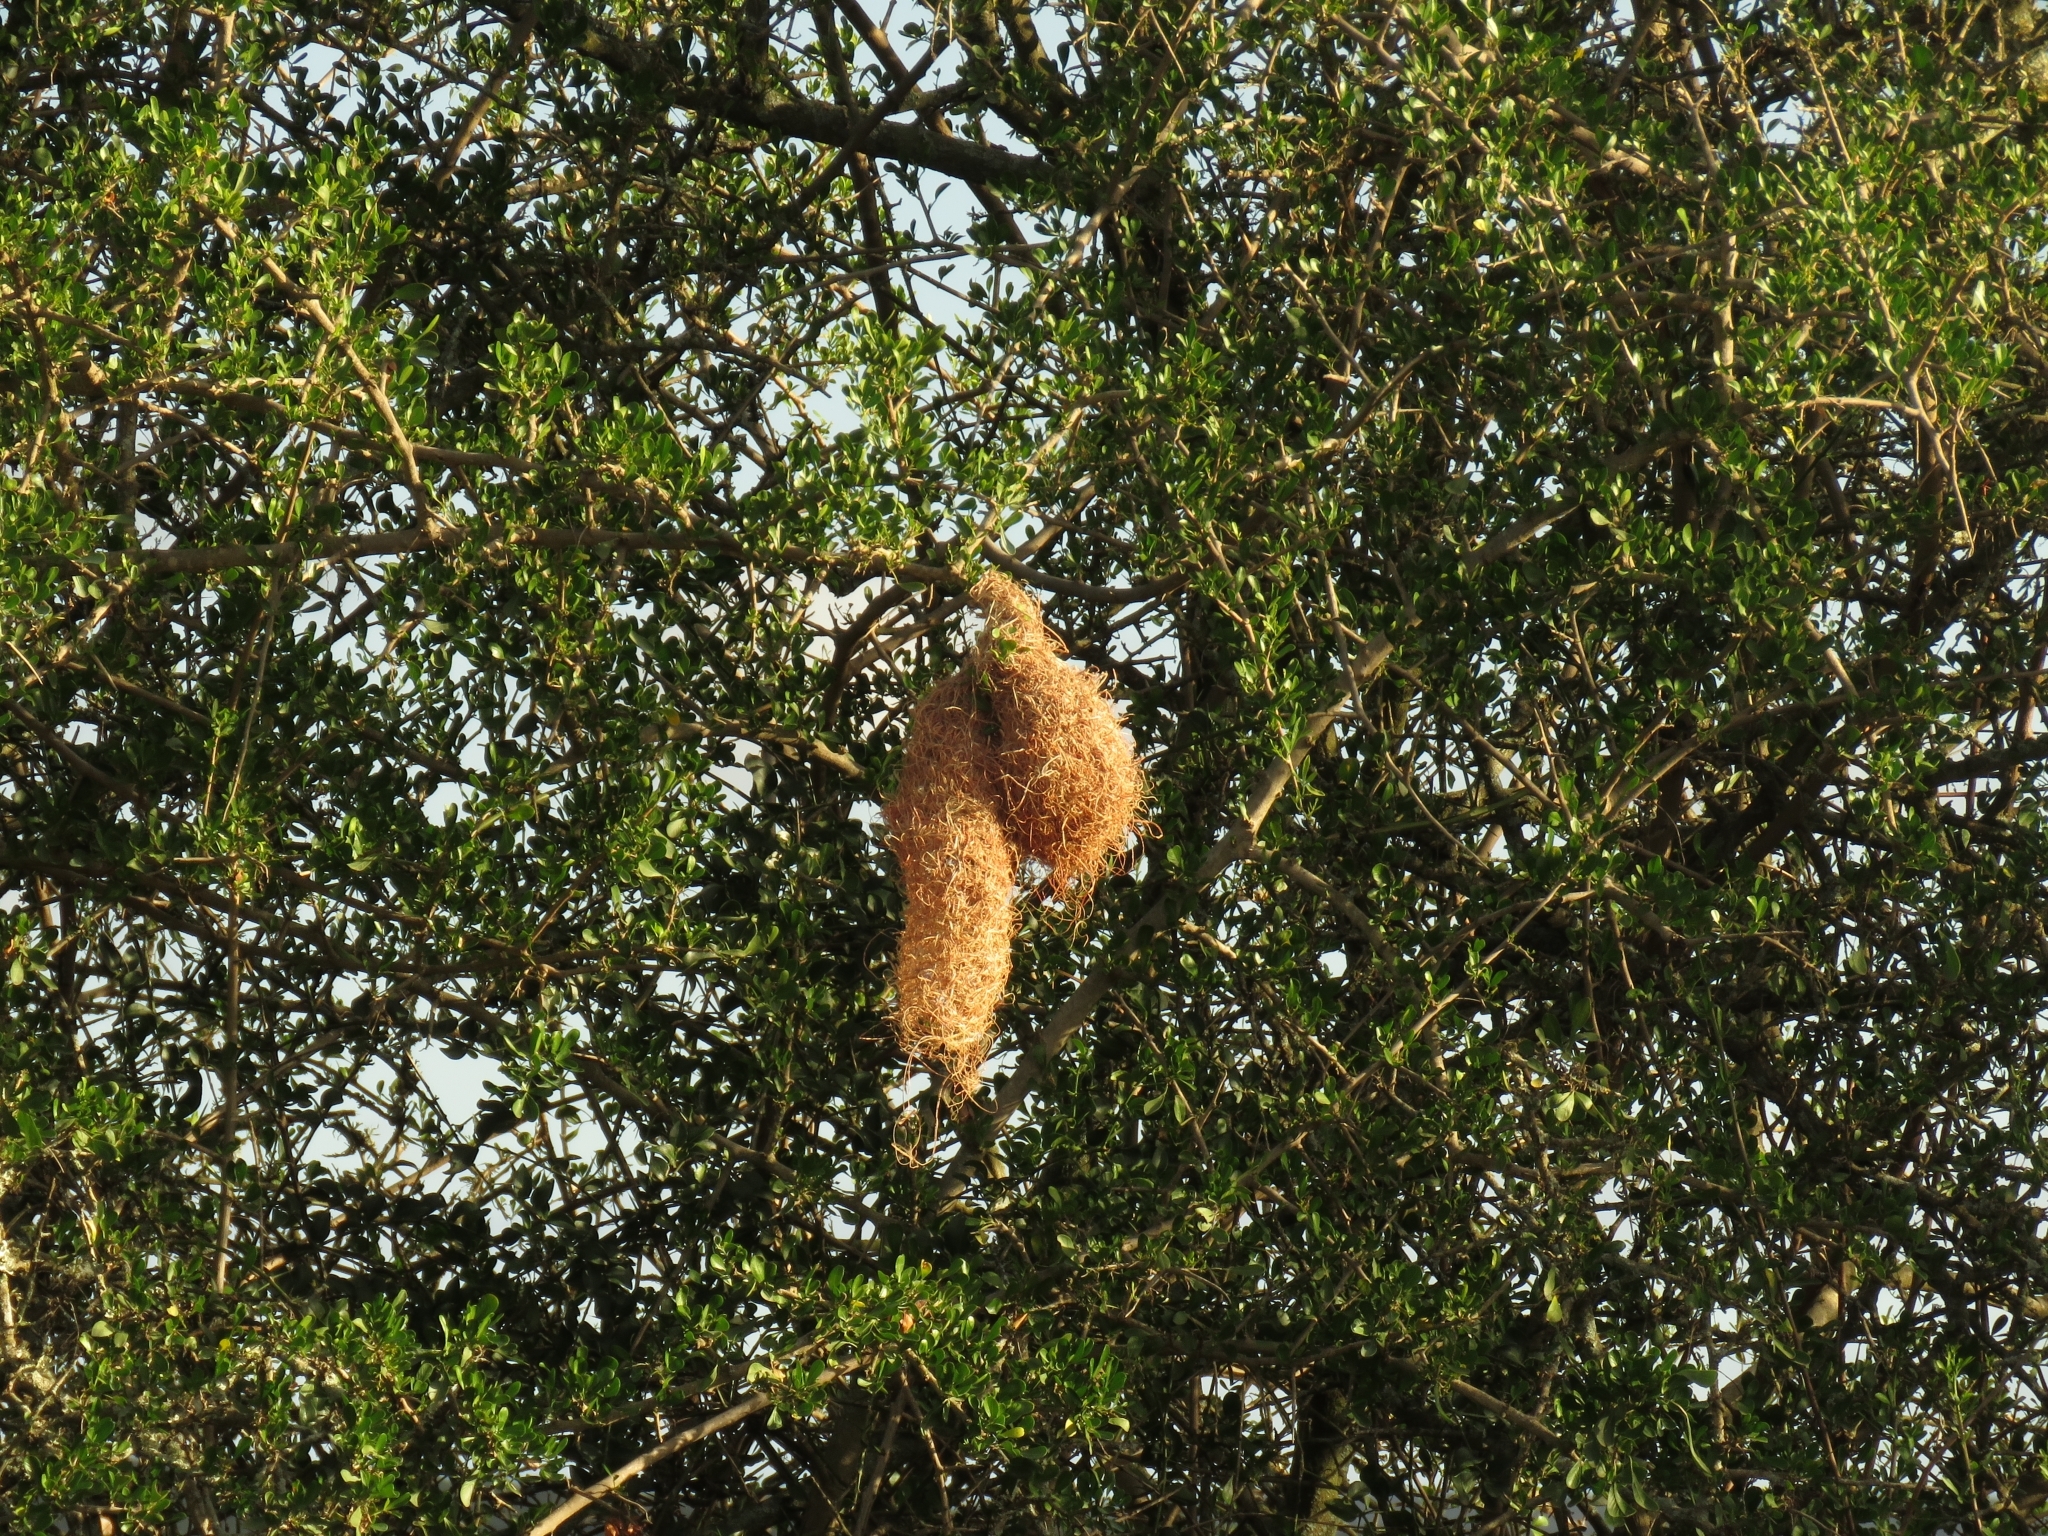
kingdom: Animalia
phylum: Chordata
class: Aves
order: Passeriformes
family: Ploceidae
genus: Ploceus
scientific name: Ploceus ocularis
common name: Spectacled weaver
